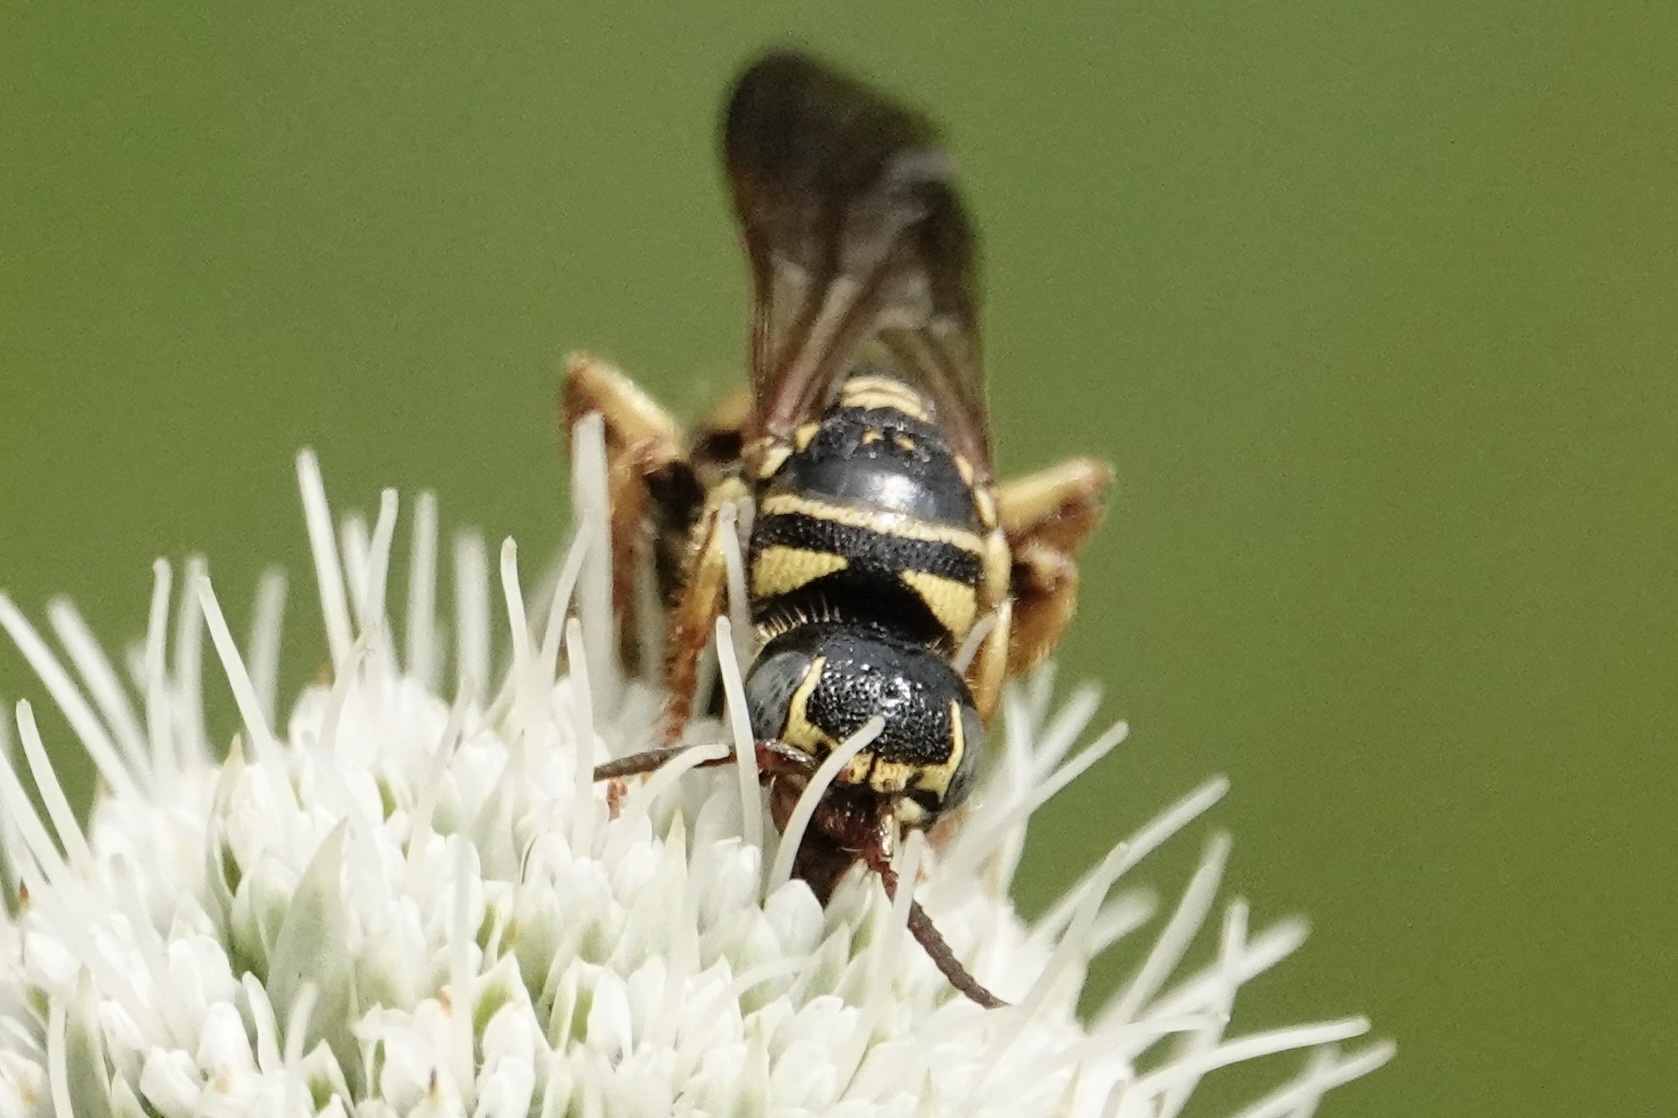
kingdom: Animalia
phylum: Arthropoda
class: Insecta
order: Hymenoptera
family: Tiphiidae
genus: Myzinum
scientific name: Myzinum quinquecinctum
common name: Five-banded thynnid wasp
